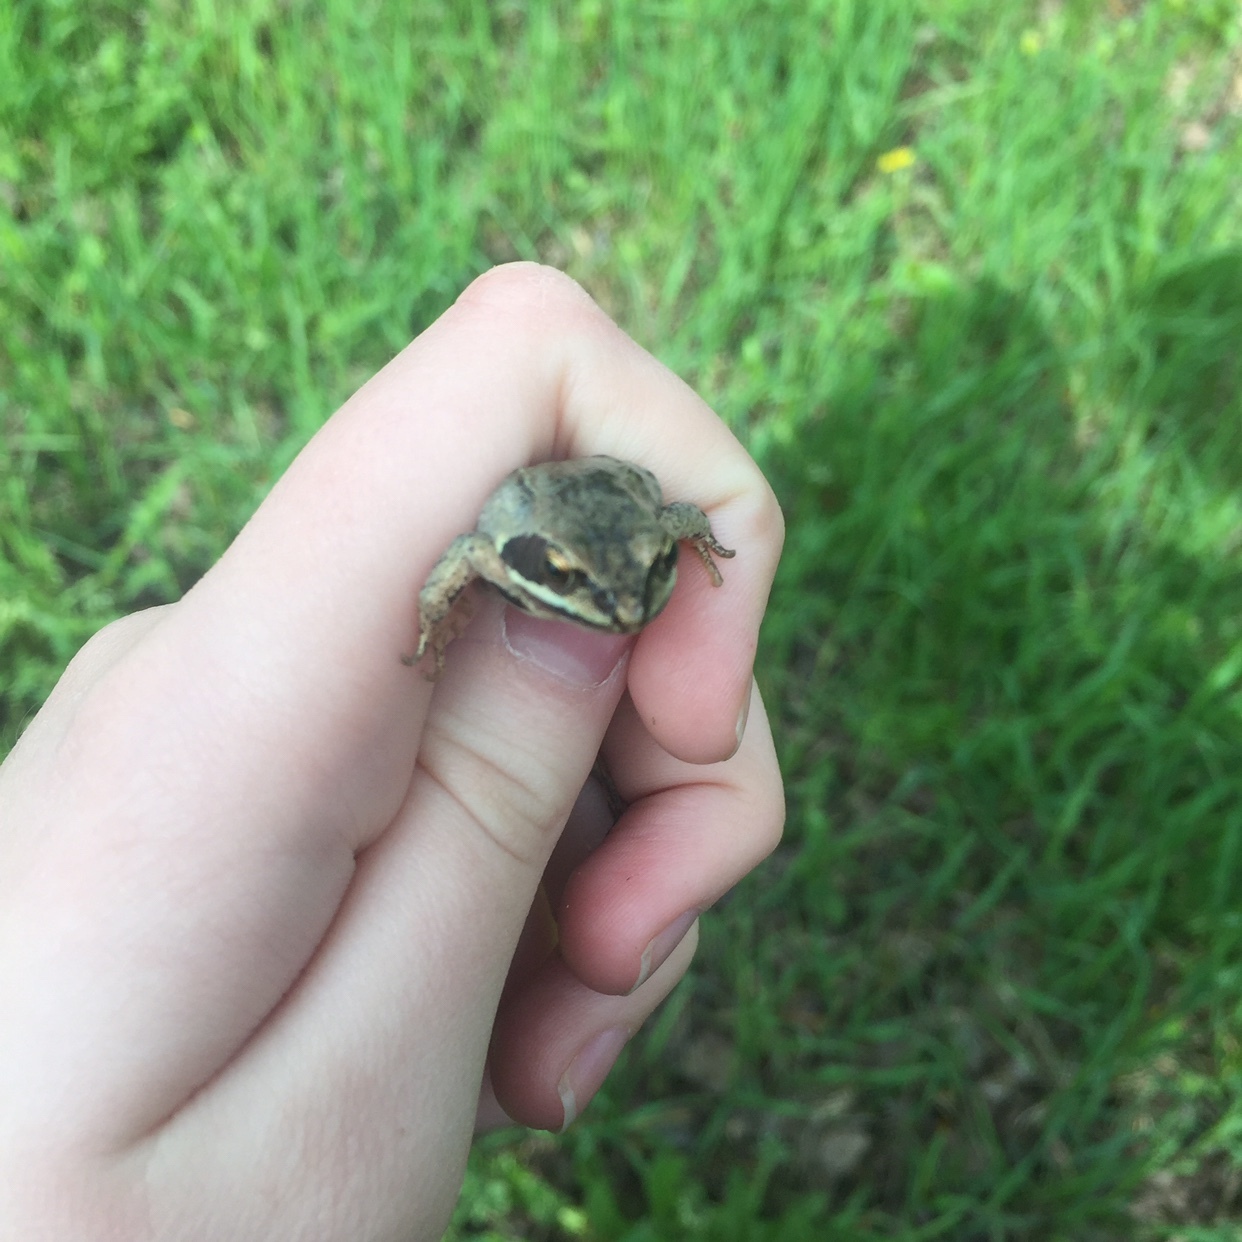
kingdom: Animalia
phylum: Chordata
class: Amphibia
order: Anura
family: Ranidae
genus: Rana
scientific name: Rana arvalis
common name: Moor frog
